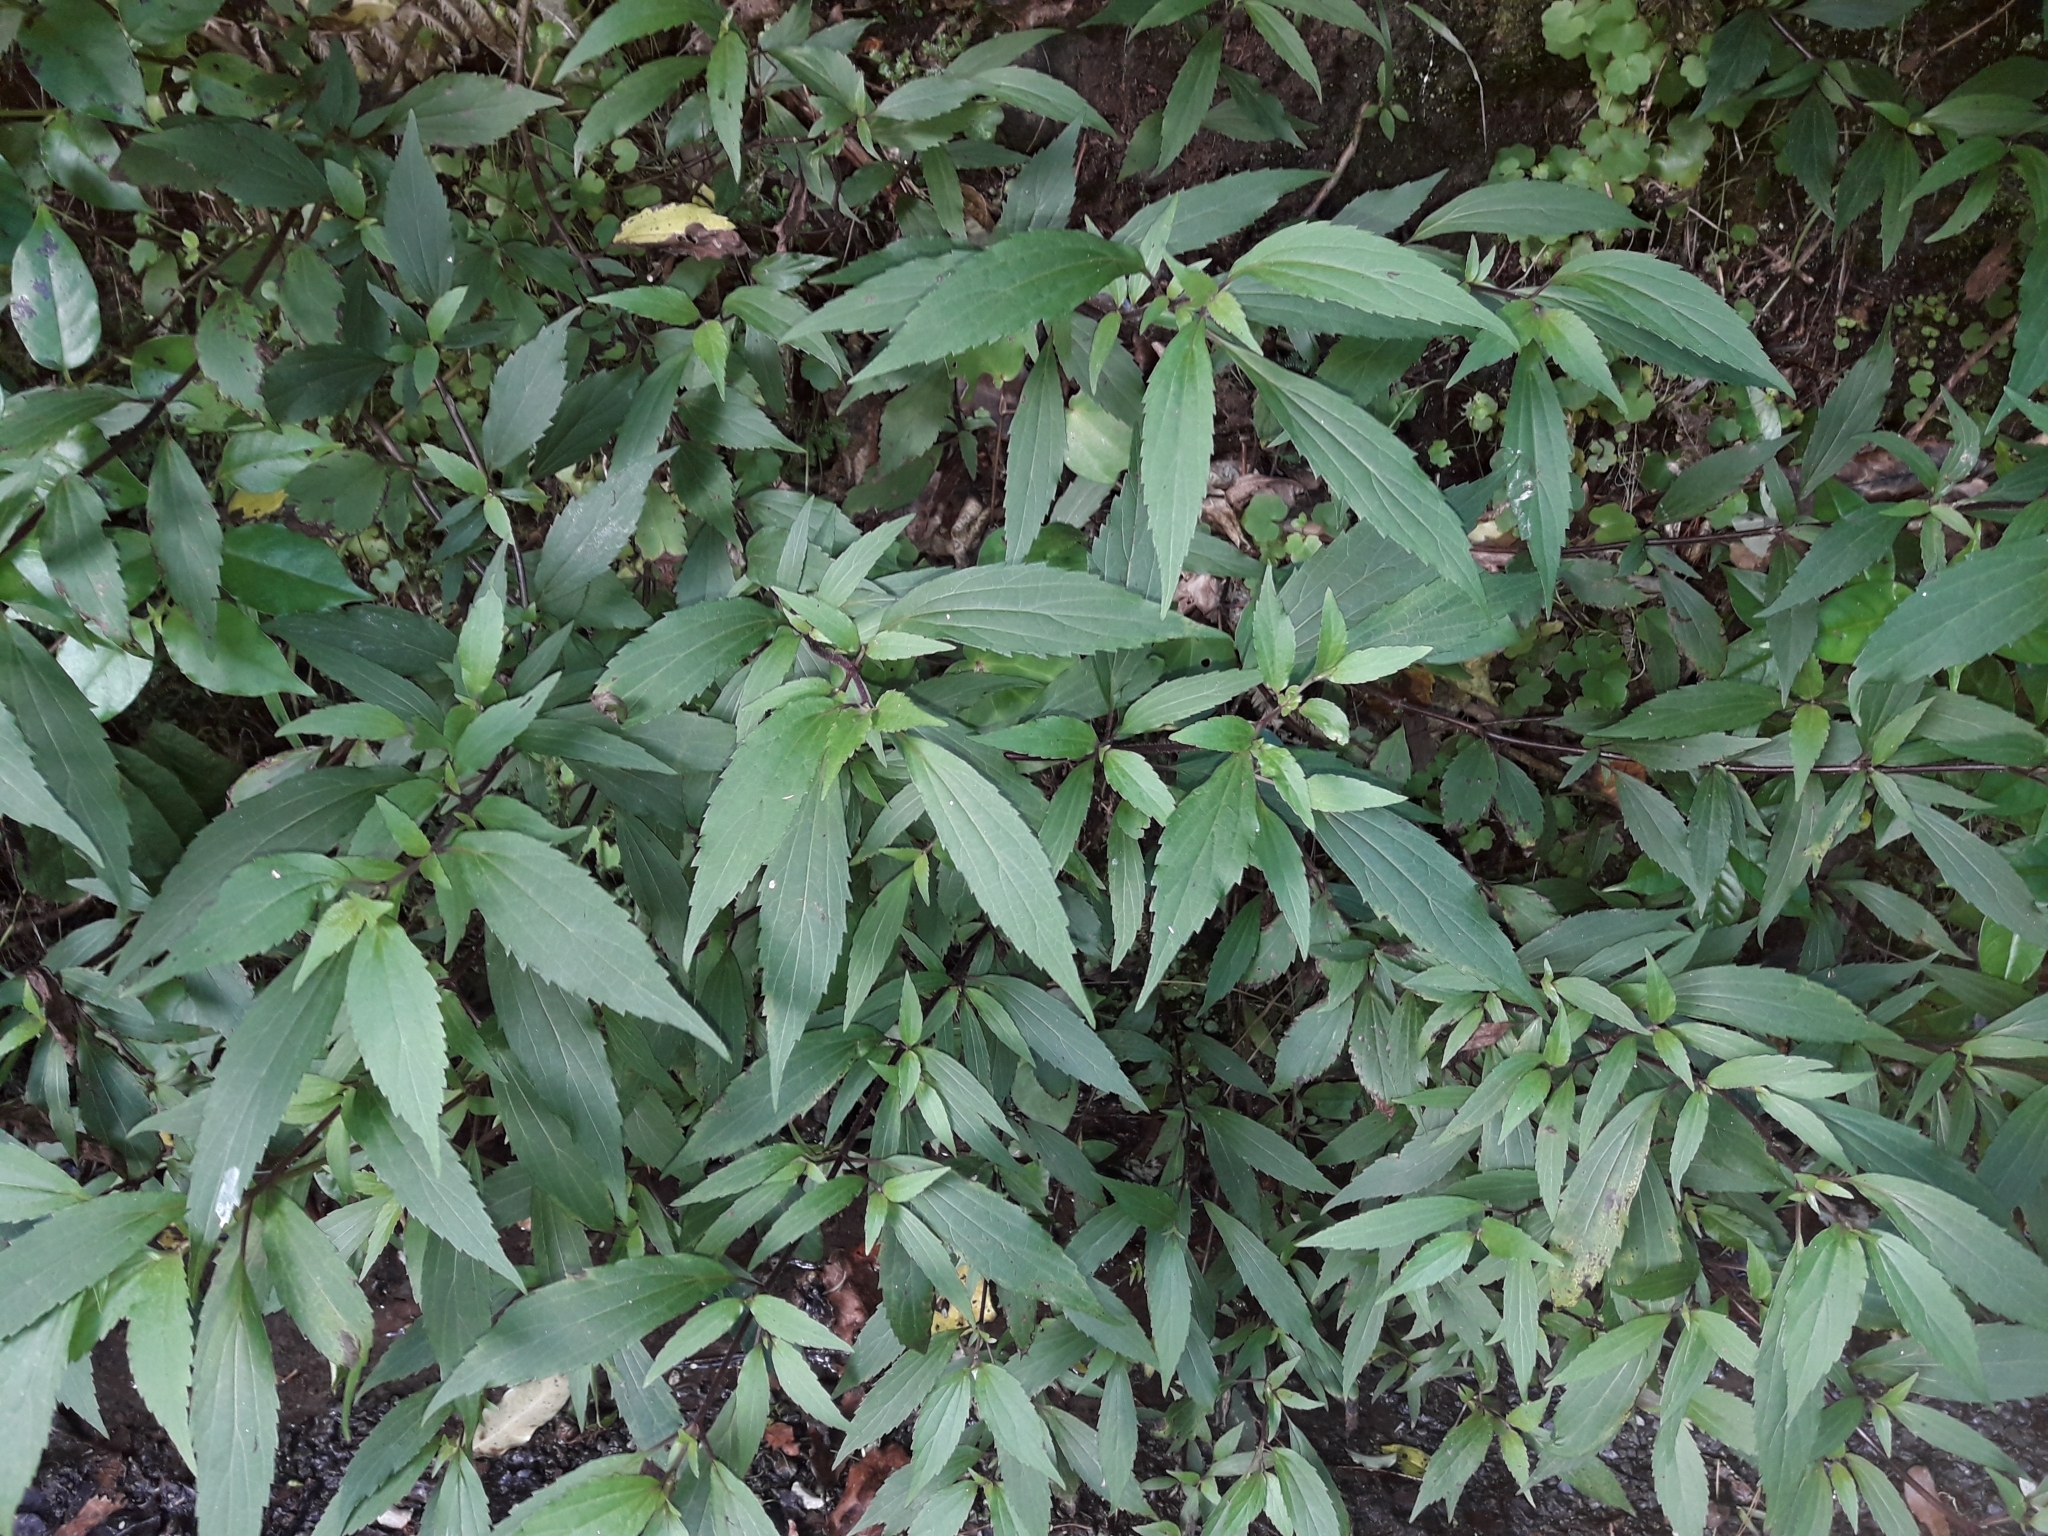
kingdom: Plantae
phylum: Tracheophyta
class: Magnoliopsida
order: Asterales
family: Asteraceae
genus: Ageratina
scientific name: Ageratina riparia
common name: Creeping croftonweed
